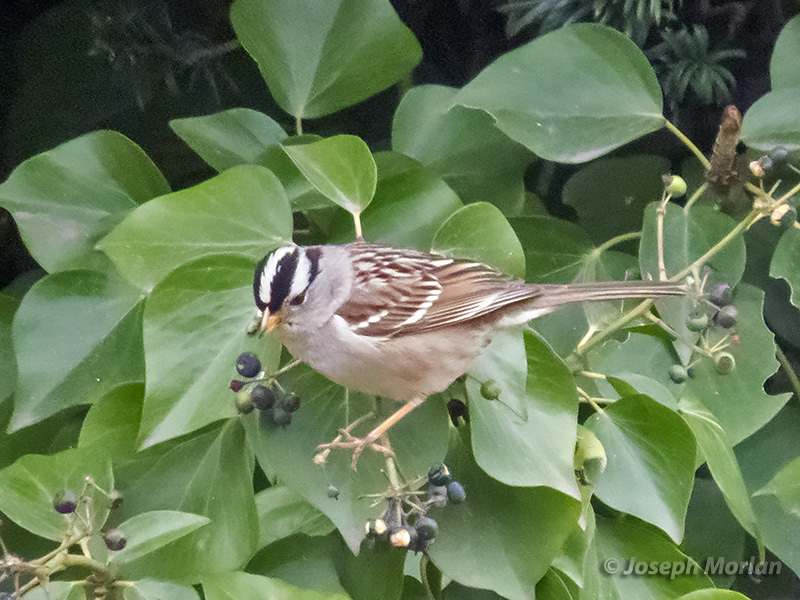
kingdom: Animalia
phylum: Chordata
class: Aves
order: Passeriformes
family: Passerellidae
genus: Zonotrichia
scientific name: Zonotrichia leucophrys
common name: White-crowned sparrow
